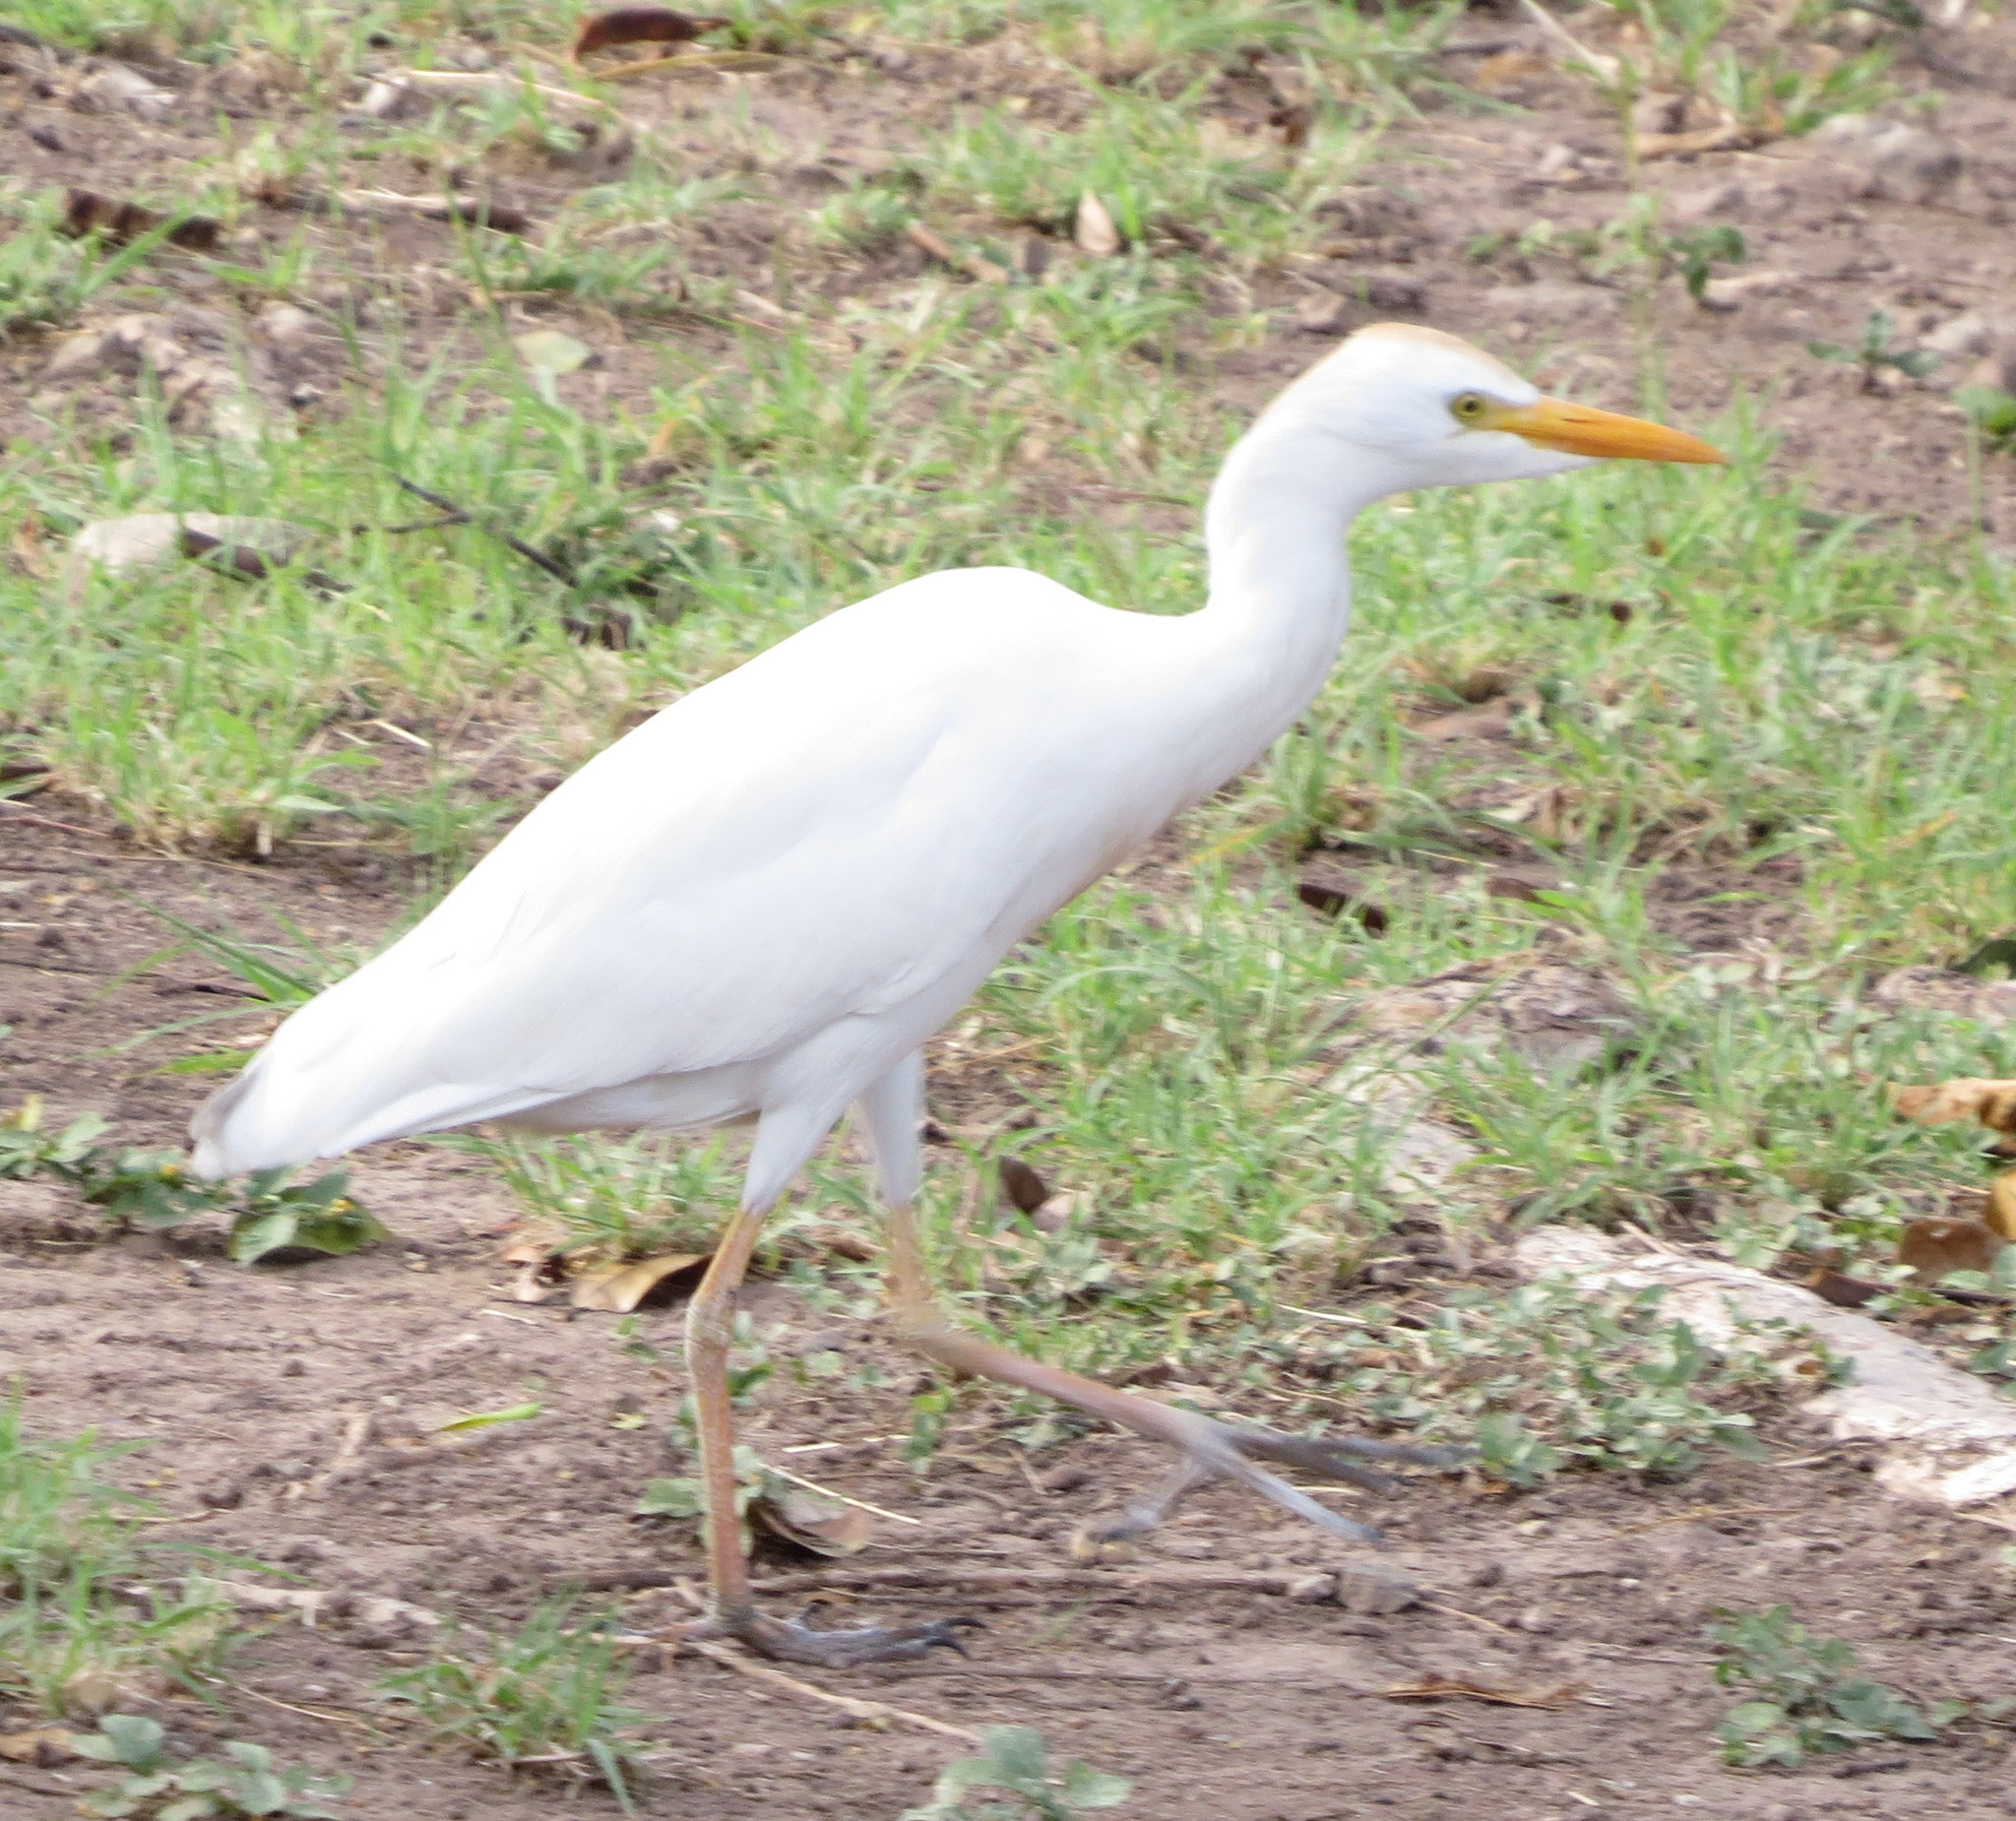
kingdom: Animalia
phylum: Chordata
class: Aves
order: Pelecaniformes
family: Ardeidae
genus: Bubulcus
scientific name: Bubulcus ibis
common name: Cattle egret
